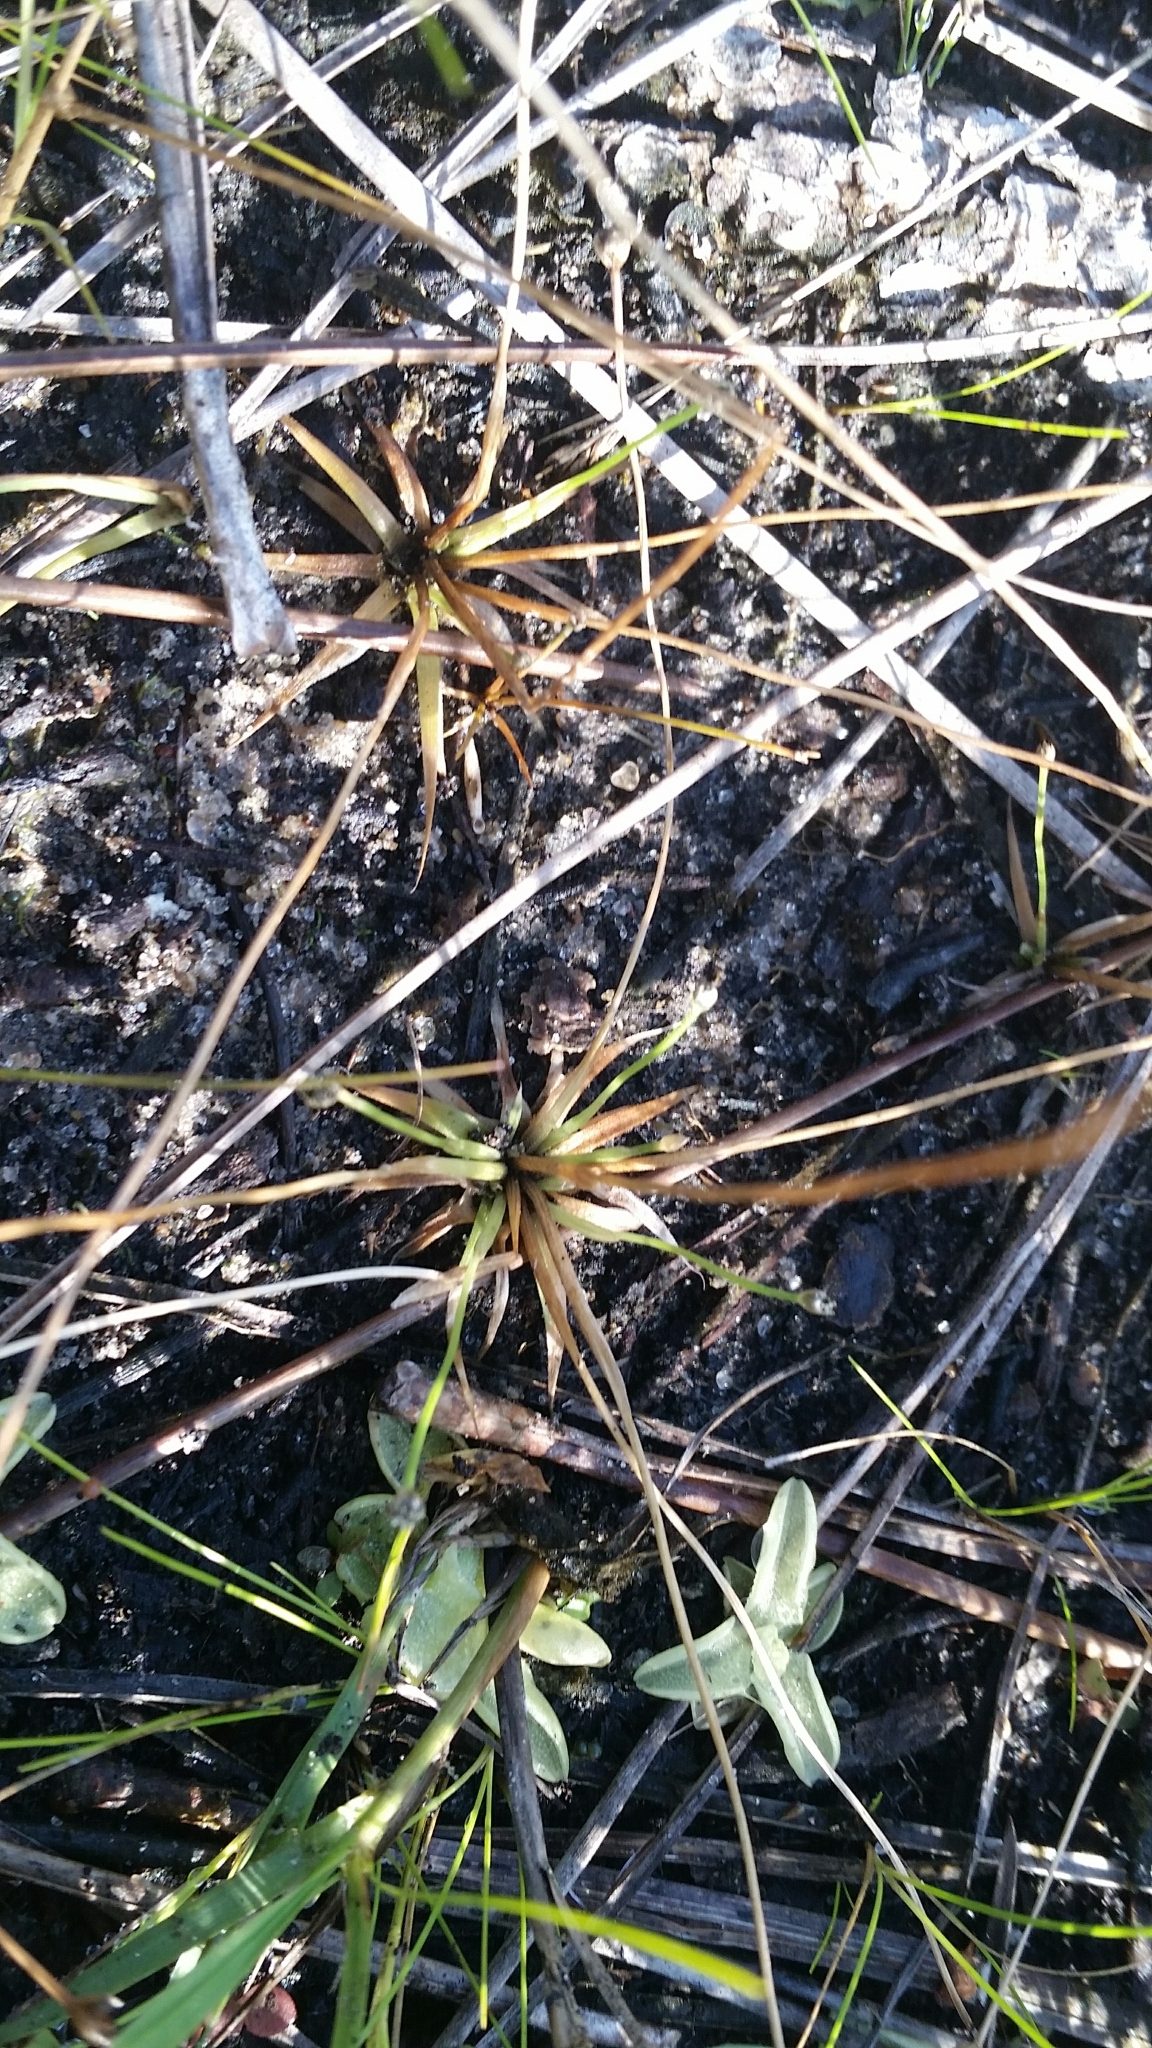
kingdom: Plantae
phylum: Tracheophyta
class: Liliopsida
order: Poales
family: Eriocaulaceae
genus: Eriocaulon
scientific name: Eriocaulon ravenelii
